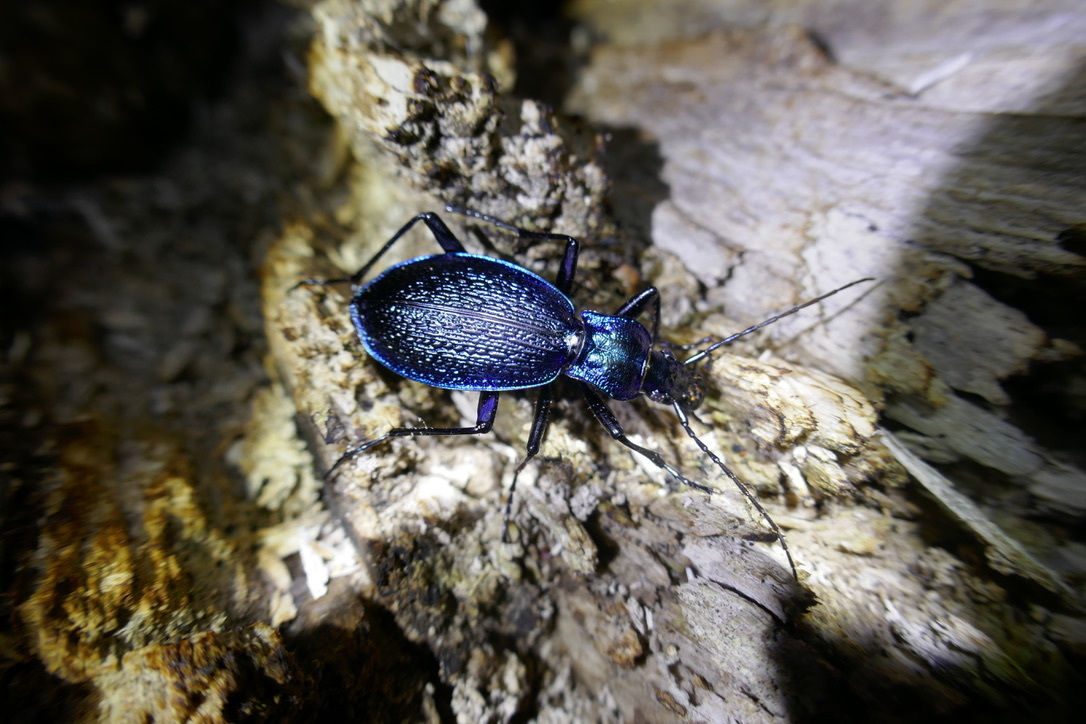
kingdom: Animalia
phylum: Arthropoda
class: Insecta
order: Coleoptera
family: Carabidae
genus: Carabus
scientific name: Carabus intricatus
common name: Blue ground beetle
